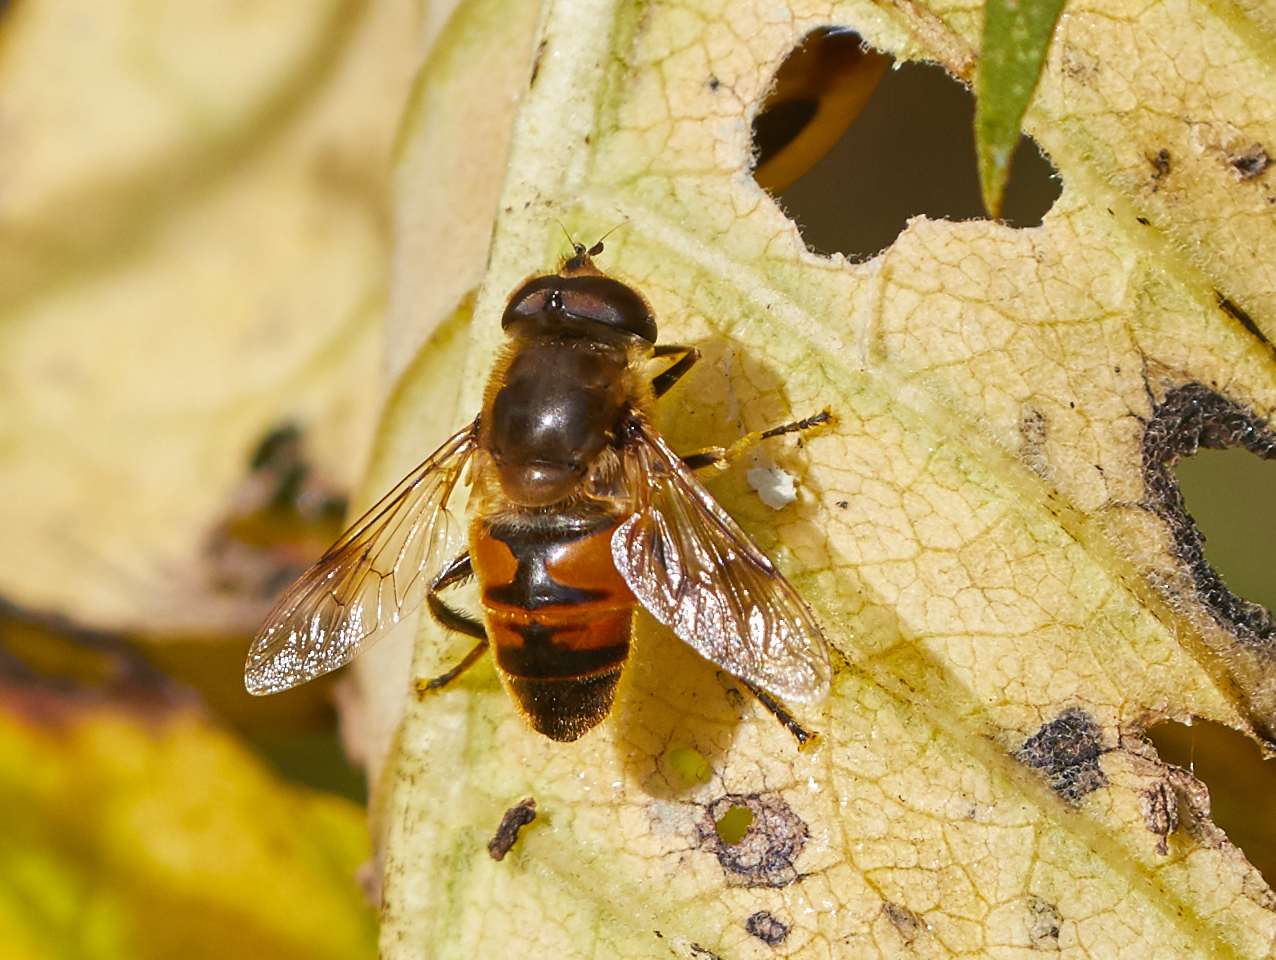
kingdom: Animalia
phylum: Arthropoda
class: Insecta
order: Diptera
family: Syrphidae
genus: Eristalis
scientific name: Eristalis tenax
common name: Drone fly
